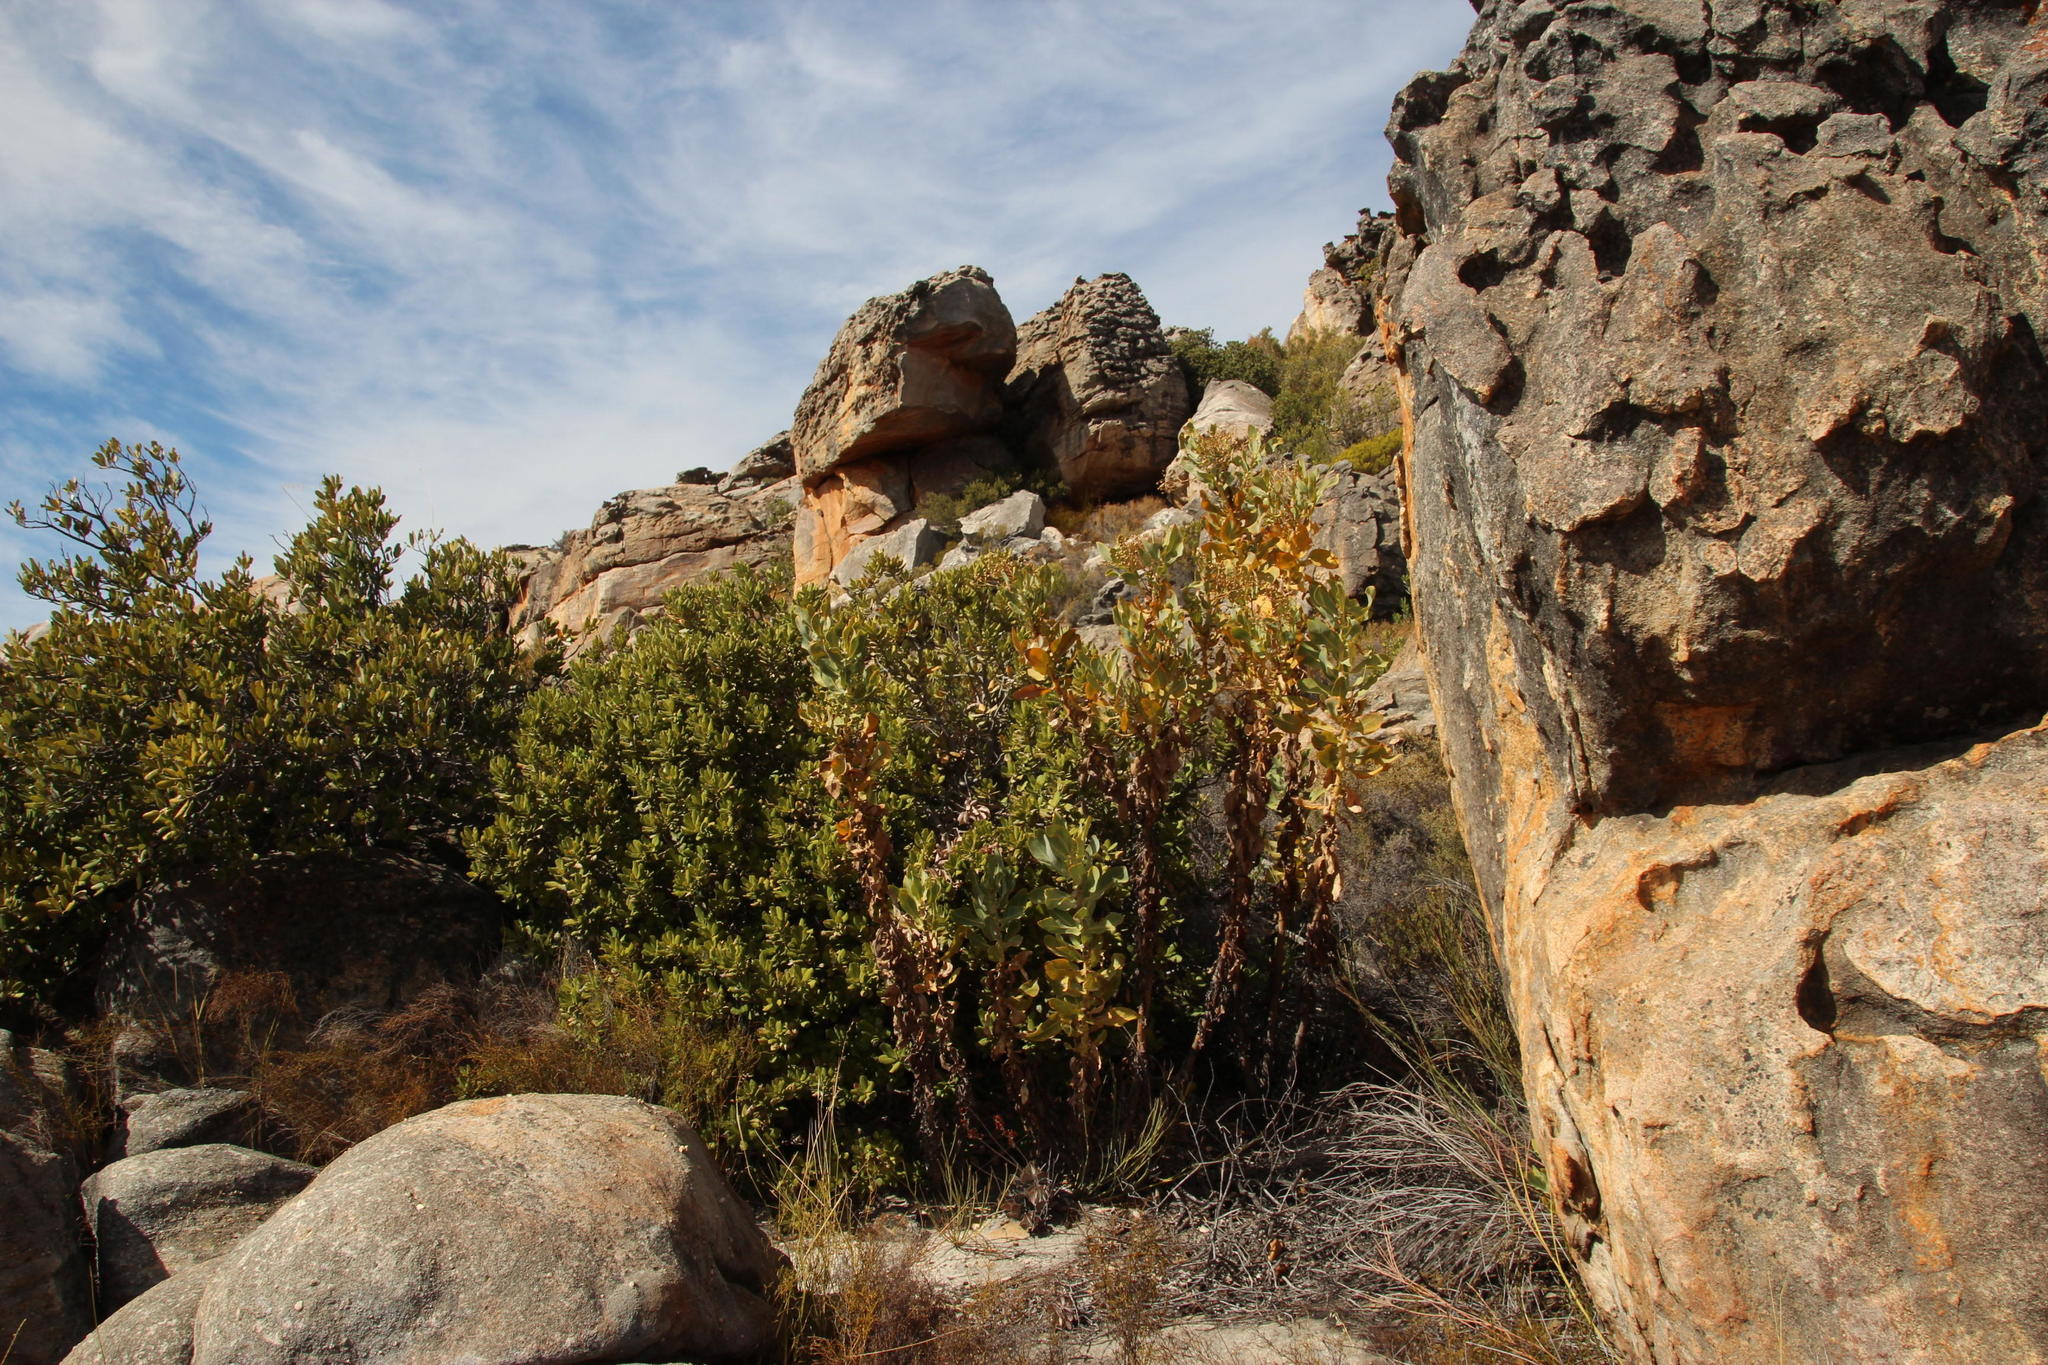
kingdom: Plantae
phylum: Tracheophyta
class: Magnoliopsida
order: Asterales
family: Asteraceae
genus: Othonna
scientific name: Othonna parviflora
